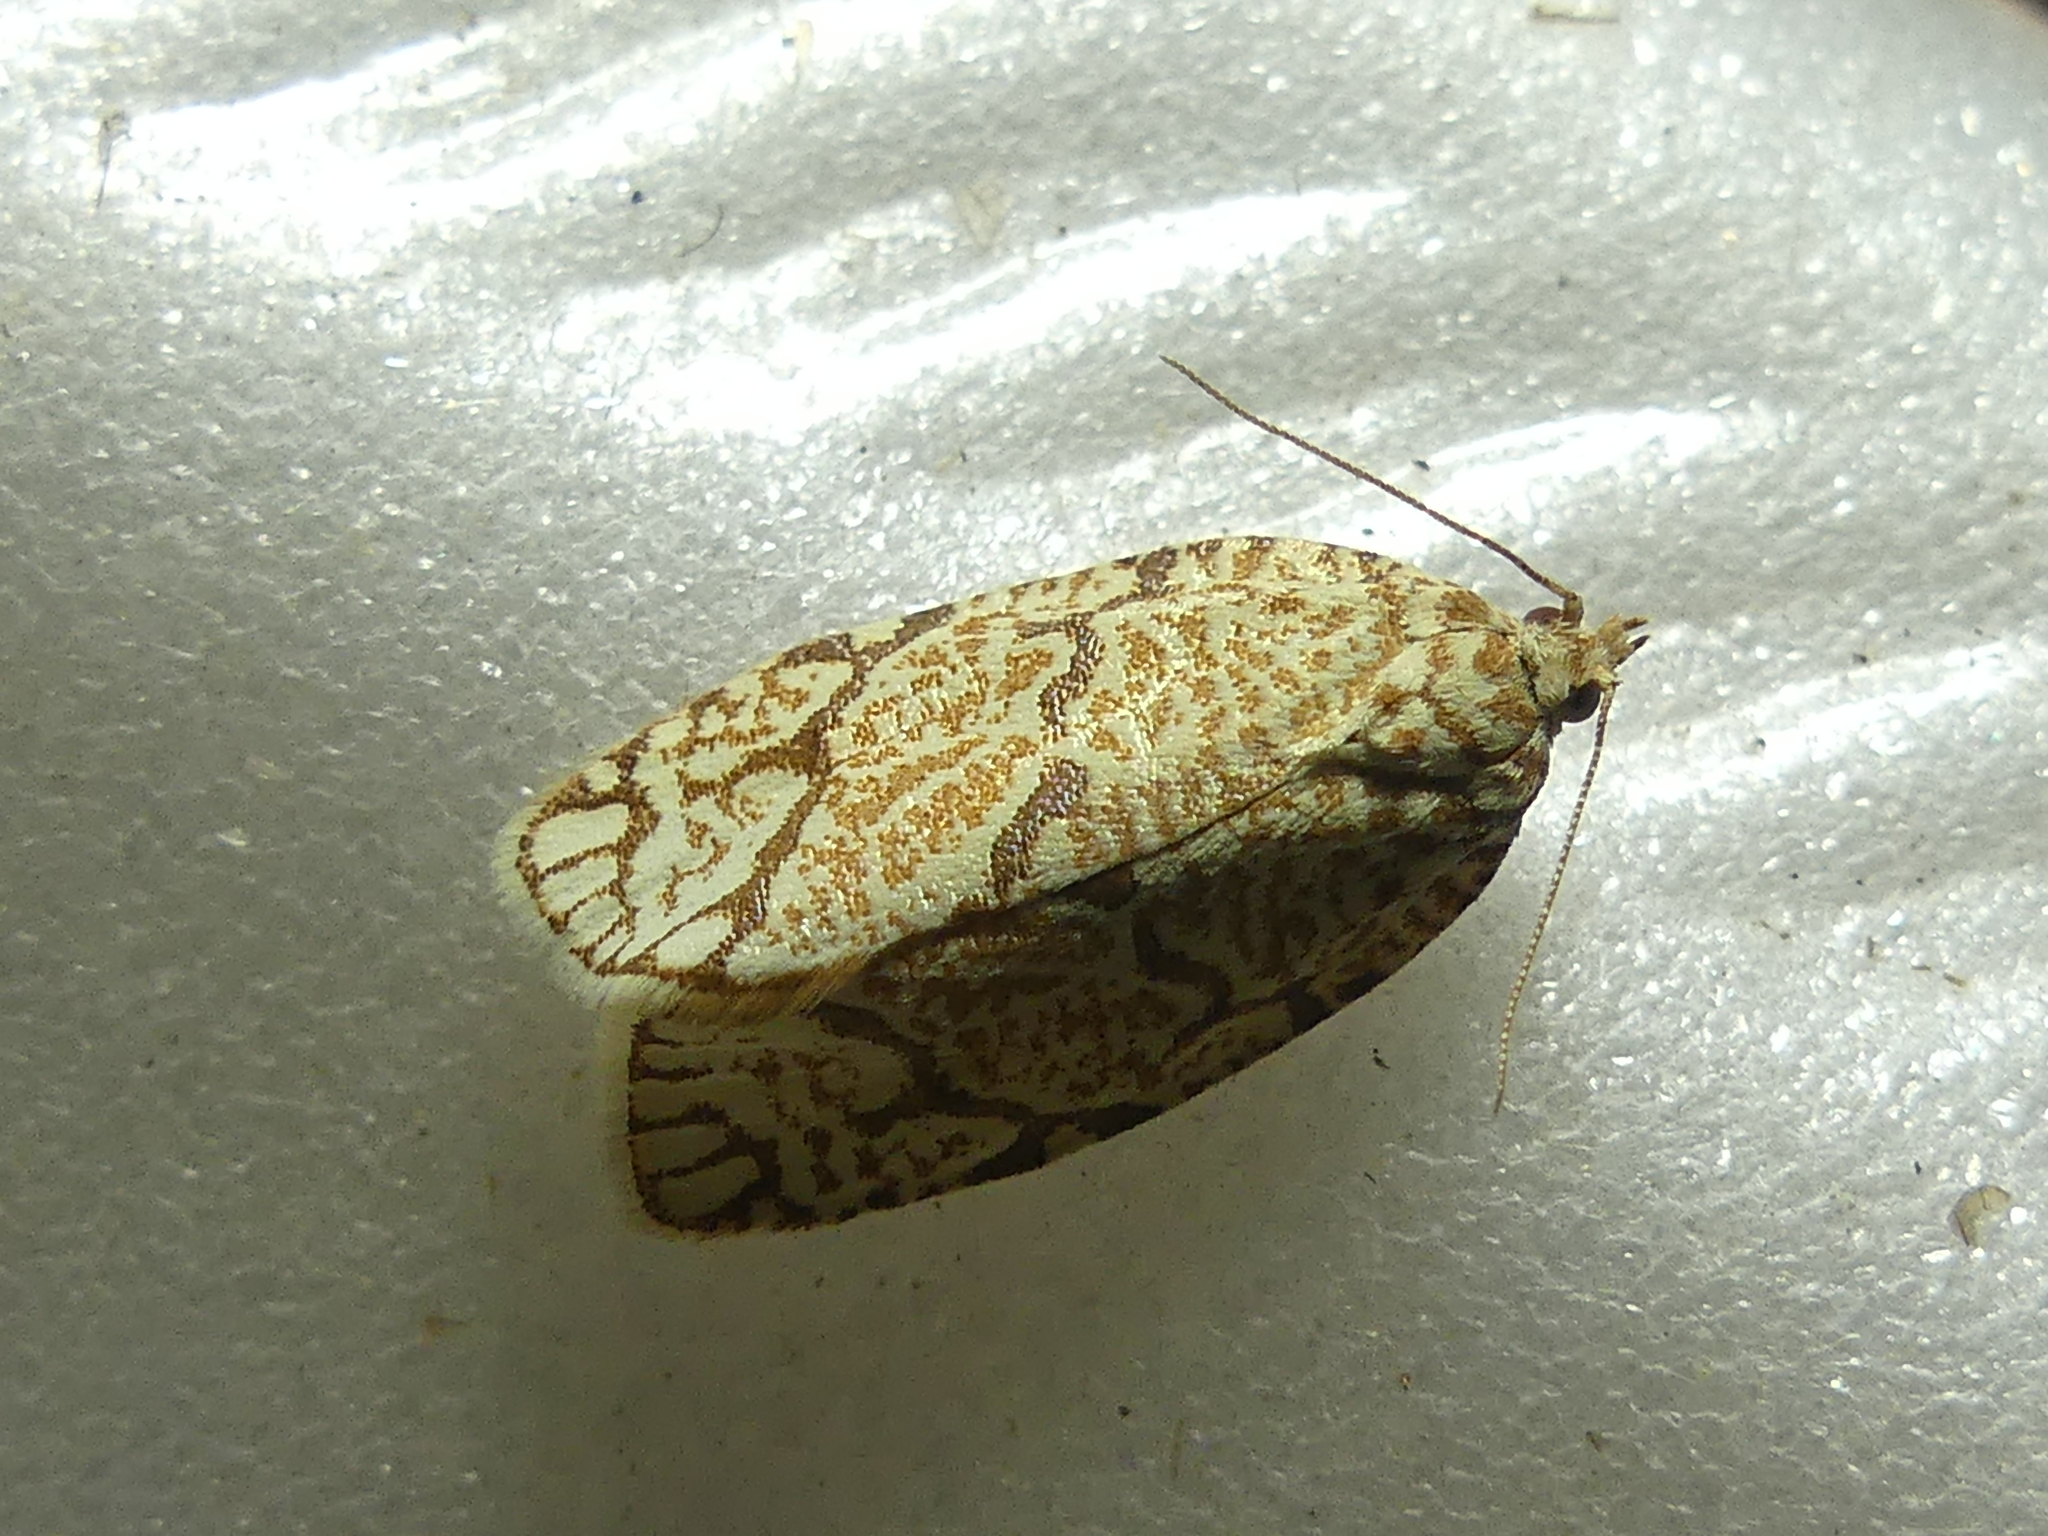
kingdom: Animalia
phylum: Arthropoda
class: Insecta
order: Lepidoptera
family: Tortricidae
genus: Argyrotaenia
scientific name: Argyrotaenia quercifoliana
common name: Yellow-winged oak leafroller moth
